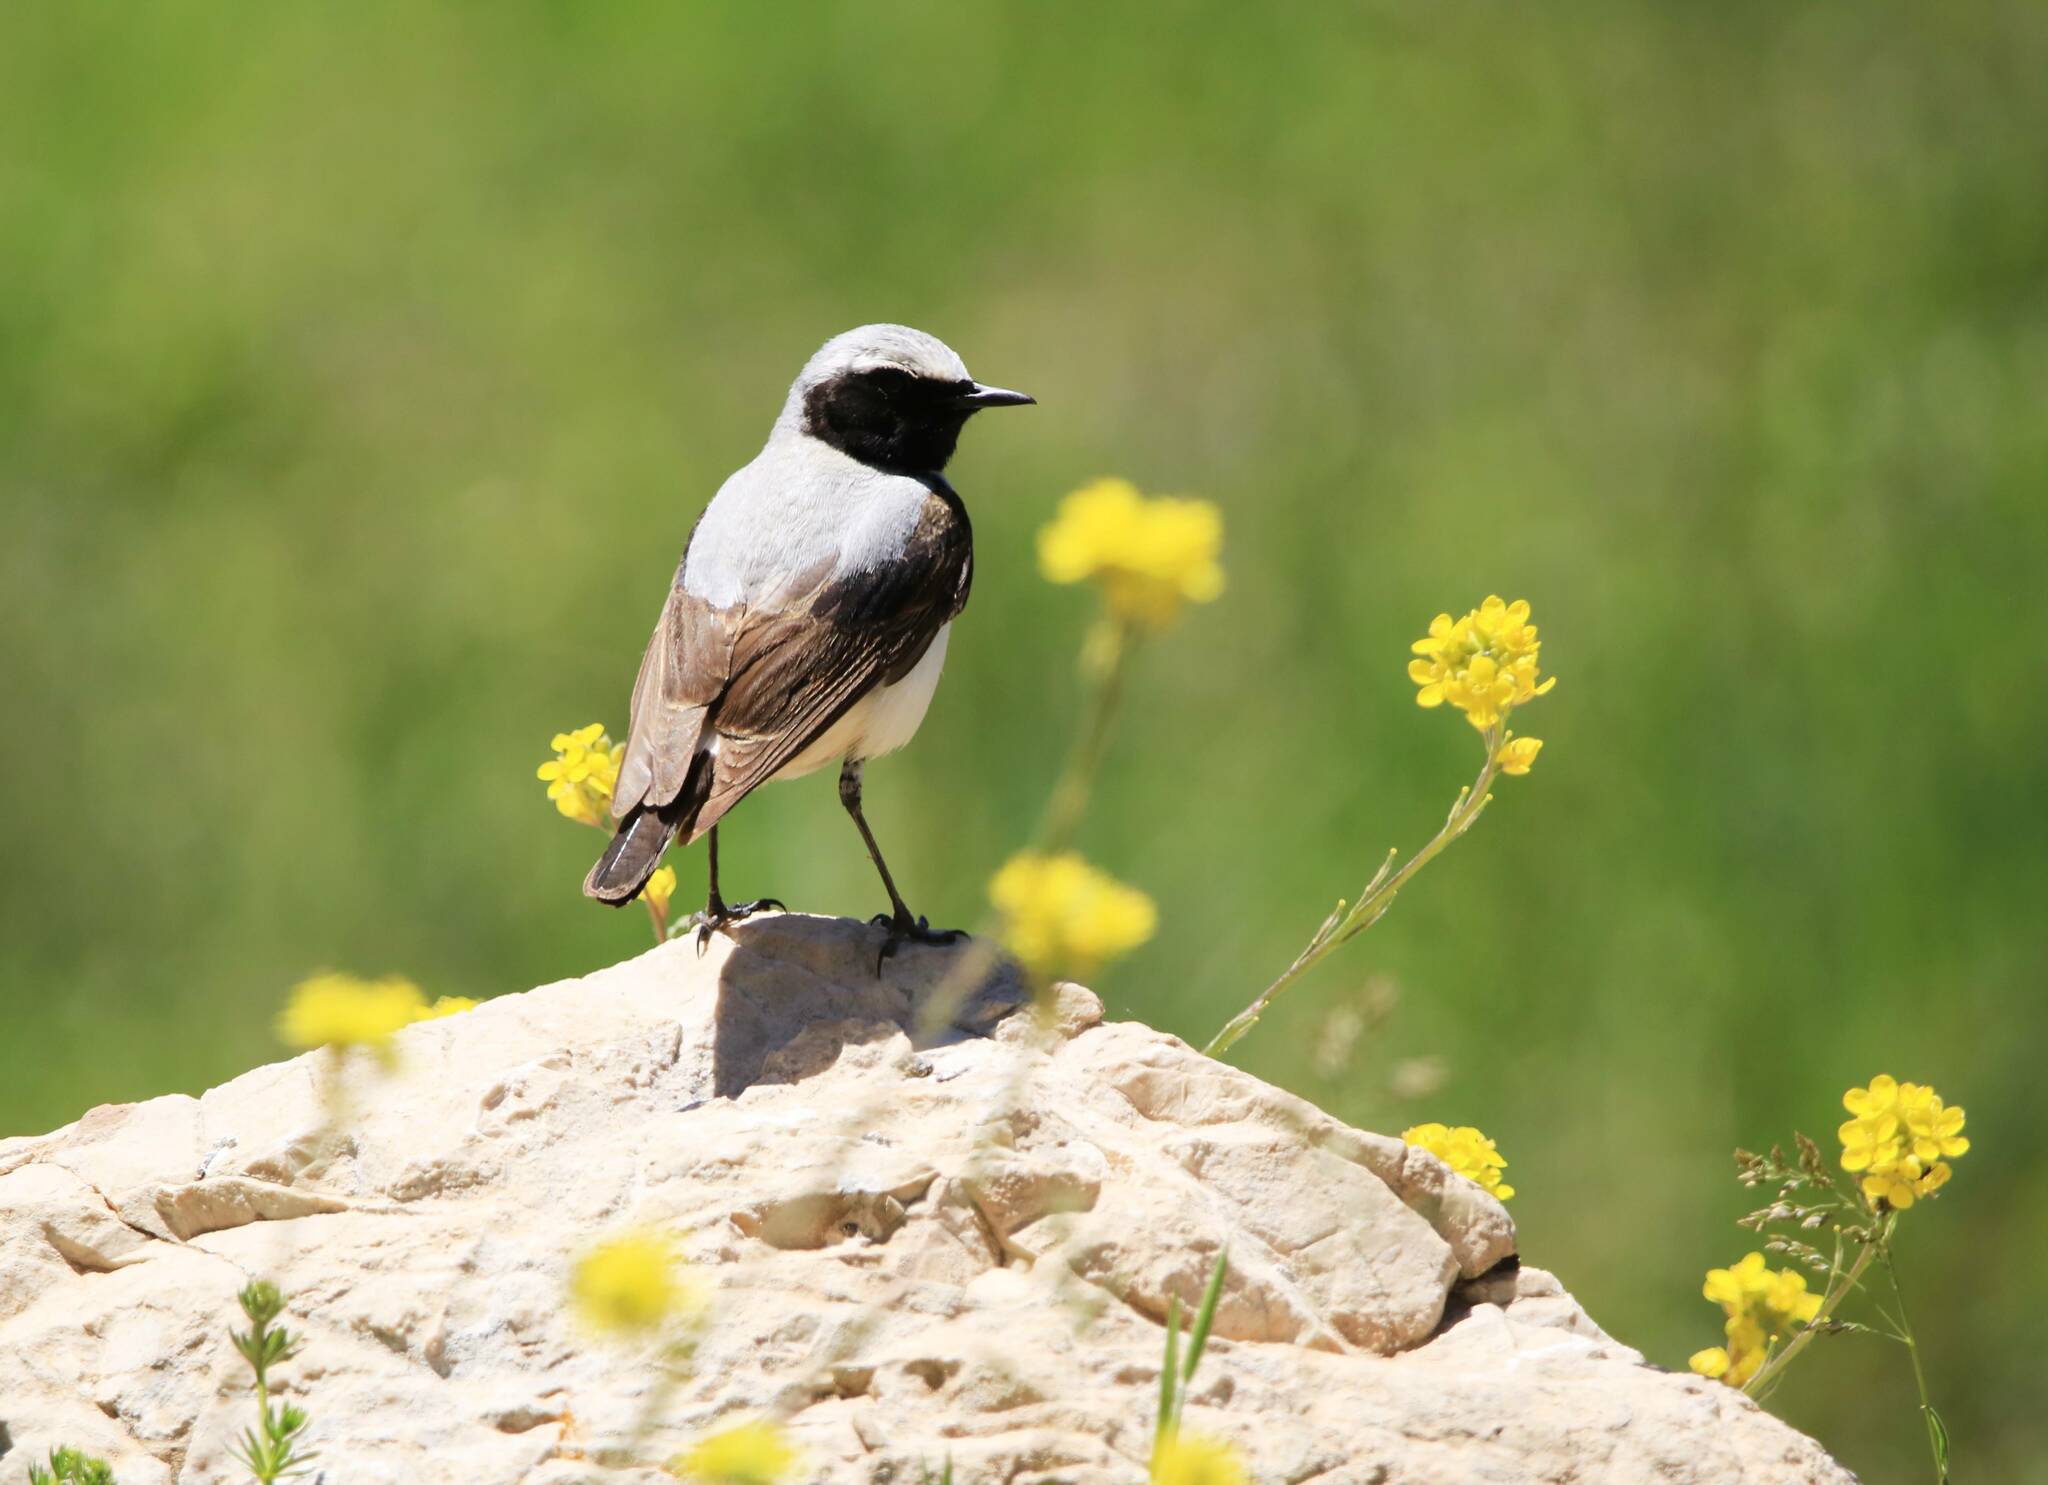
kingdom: Animalia
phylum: Chordata
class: Aves
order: Passeriformes
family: Muscicapidae
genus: Oenanthe
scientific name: Oenanthe oenanthe
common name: Northern wheatear
